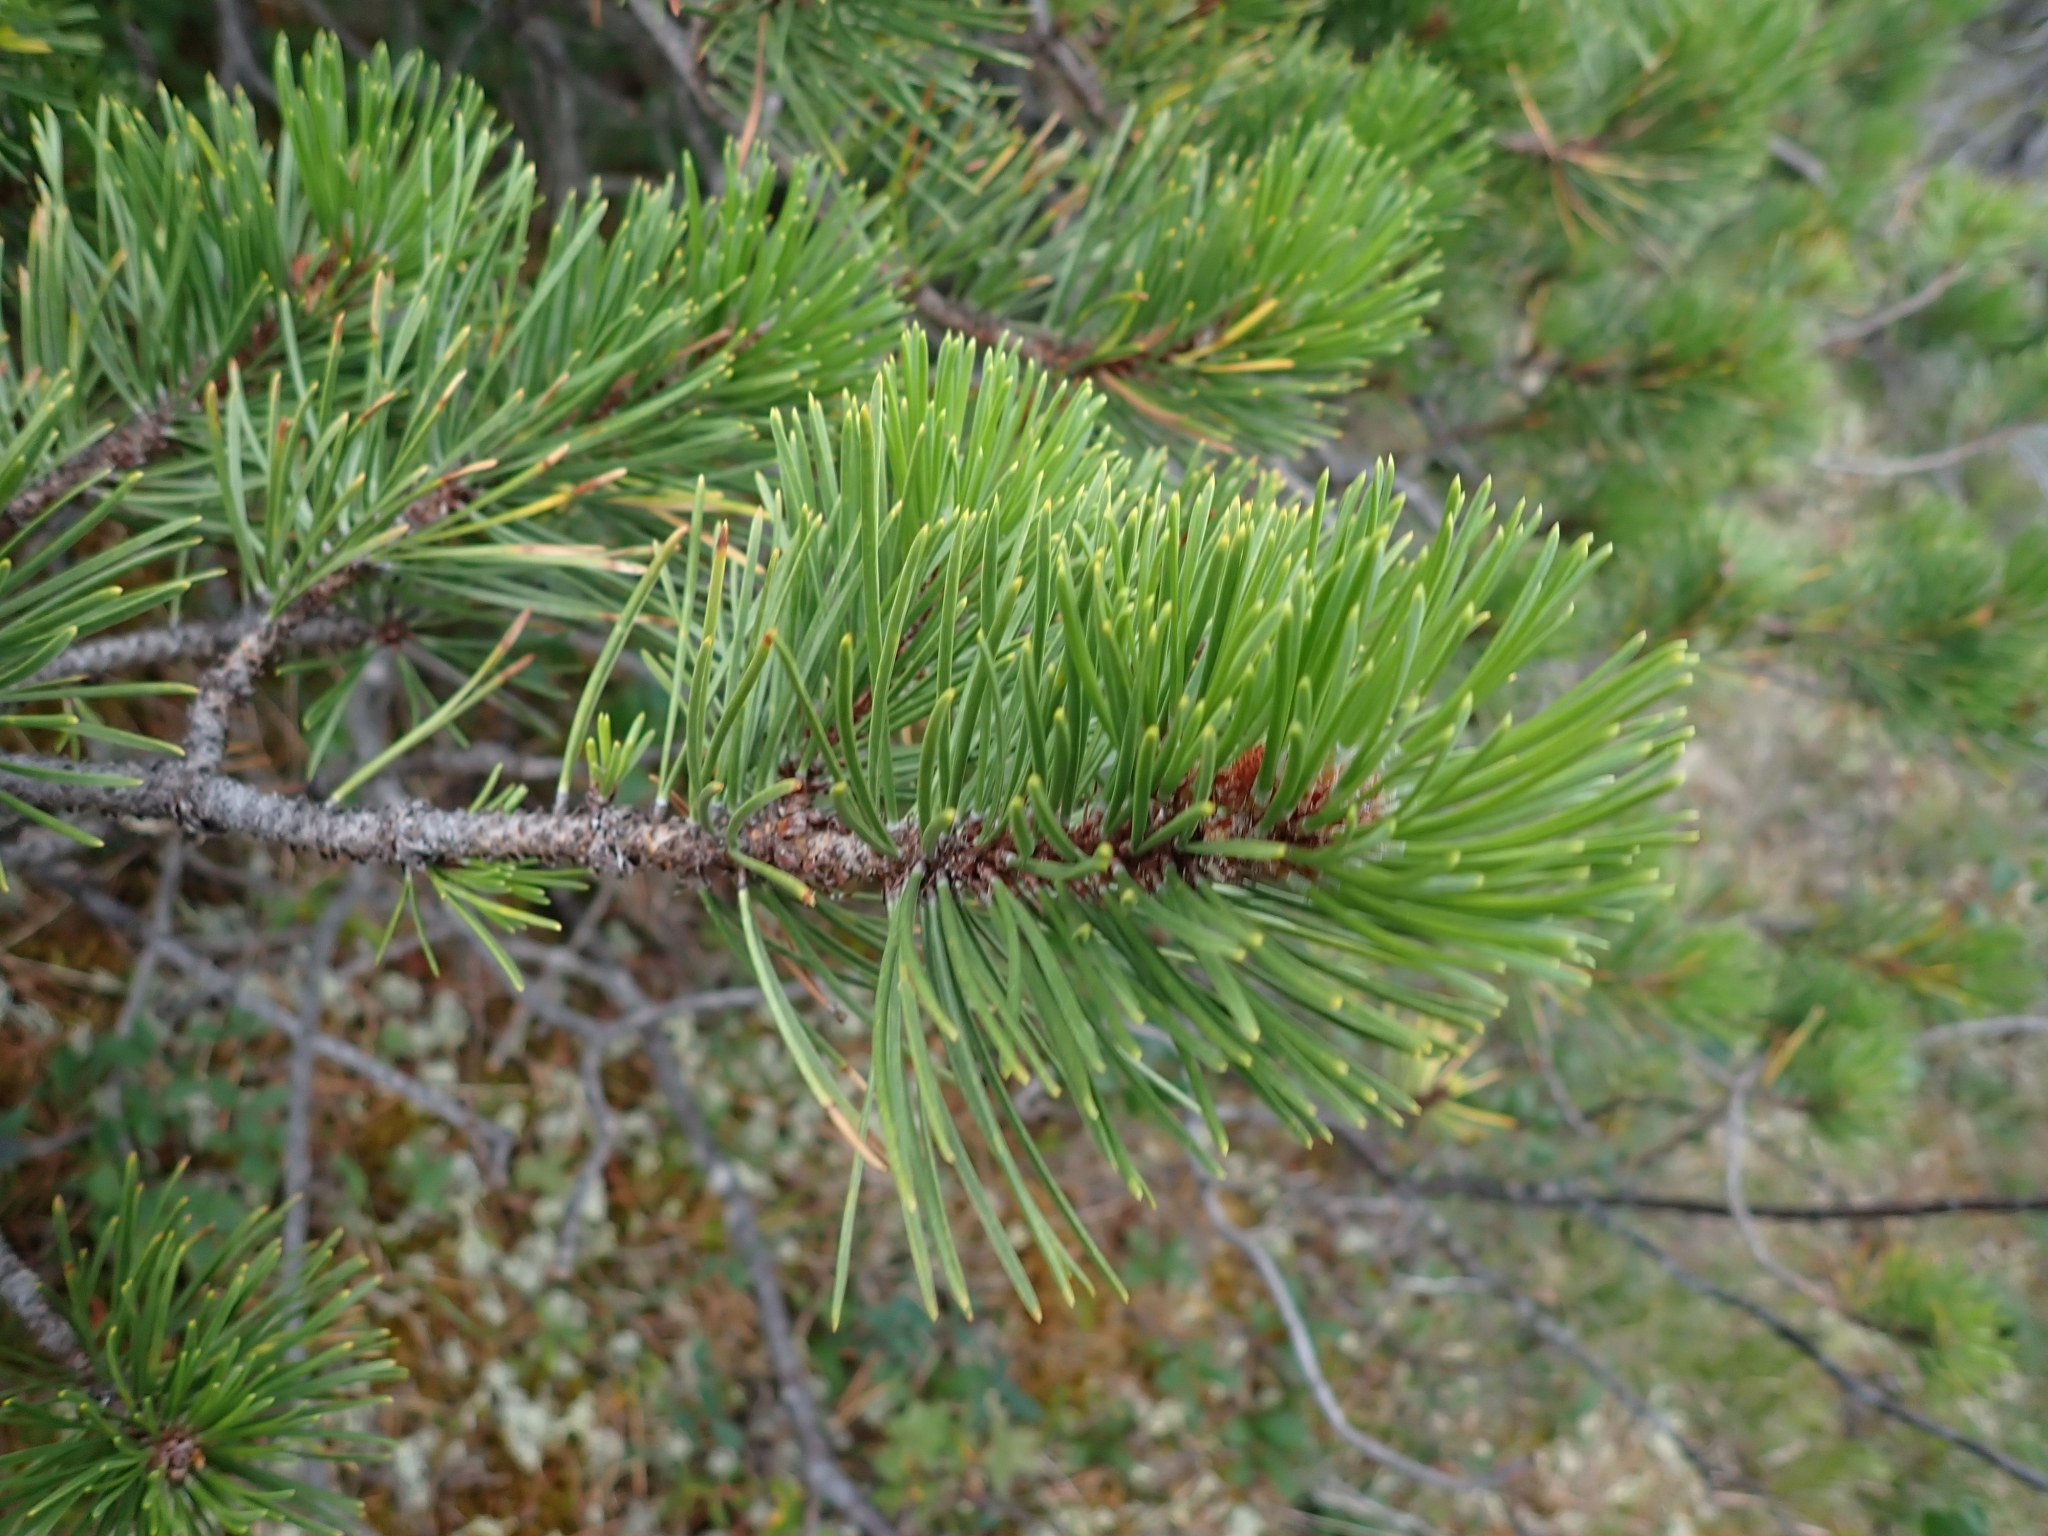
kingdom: Plantae
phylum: Tracheophyta
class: Pinopsida
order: Pinales
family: Pinaceae
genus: Pinus
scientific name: Pinus contorta
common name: Lodgepole pine
